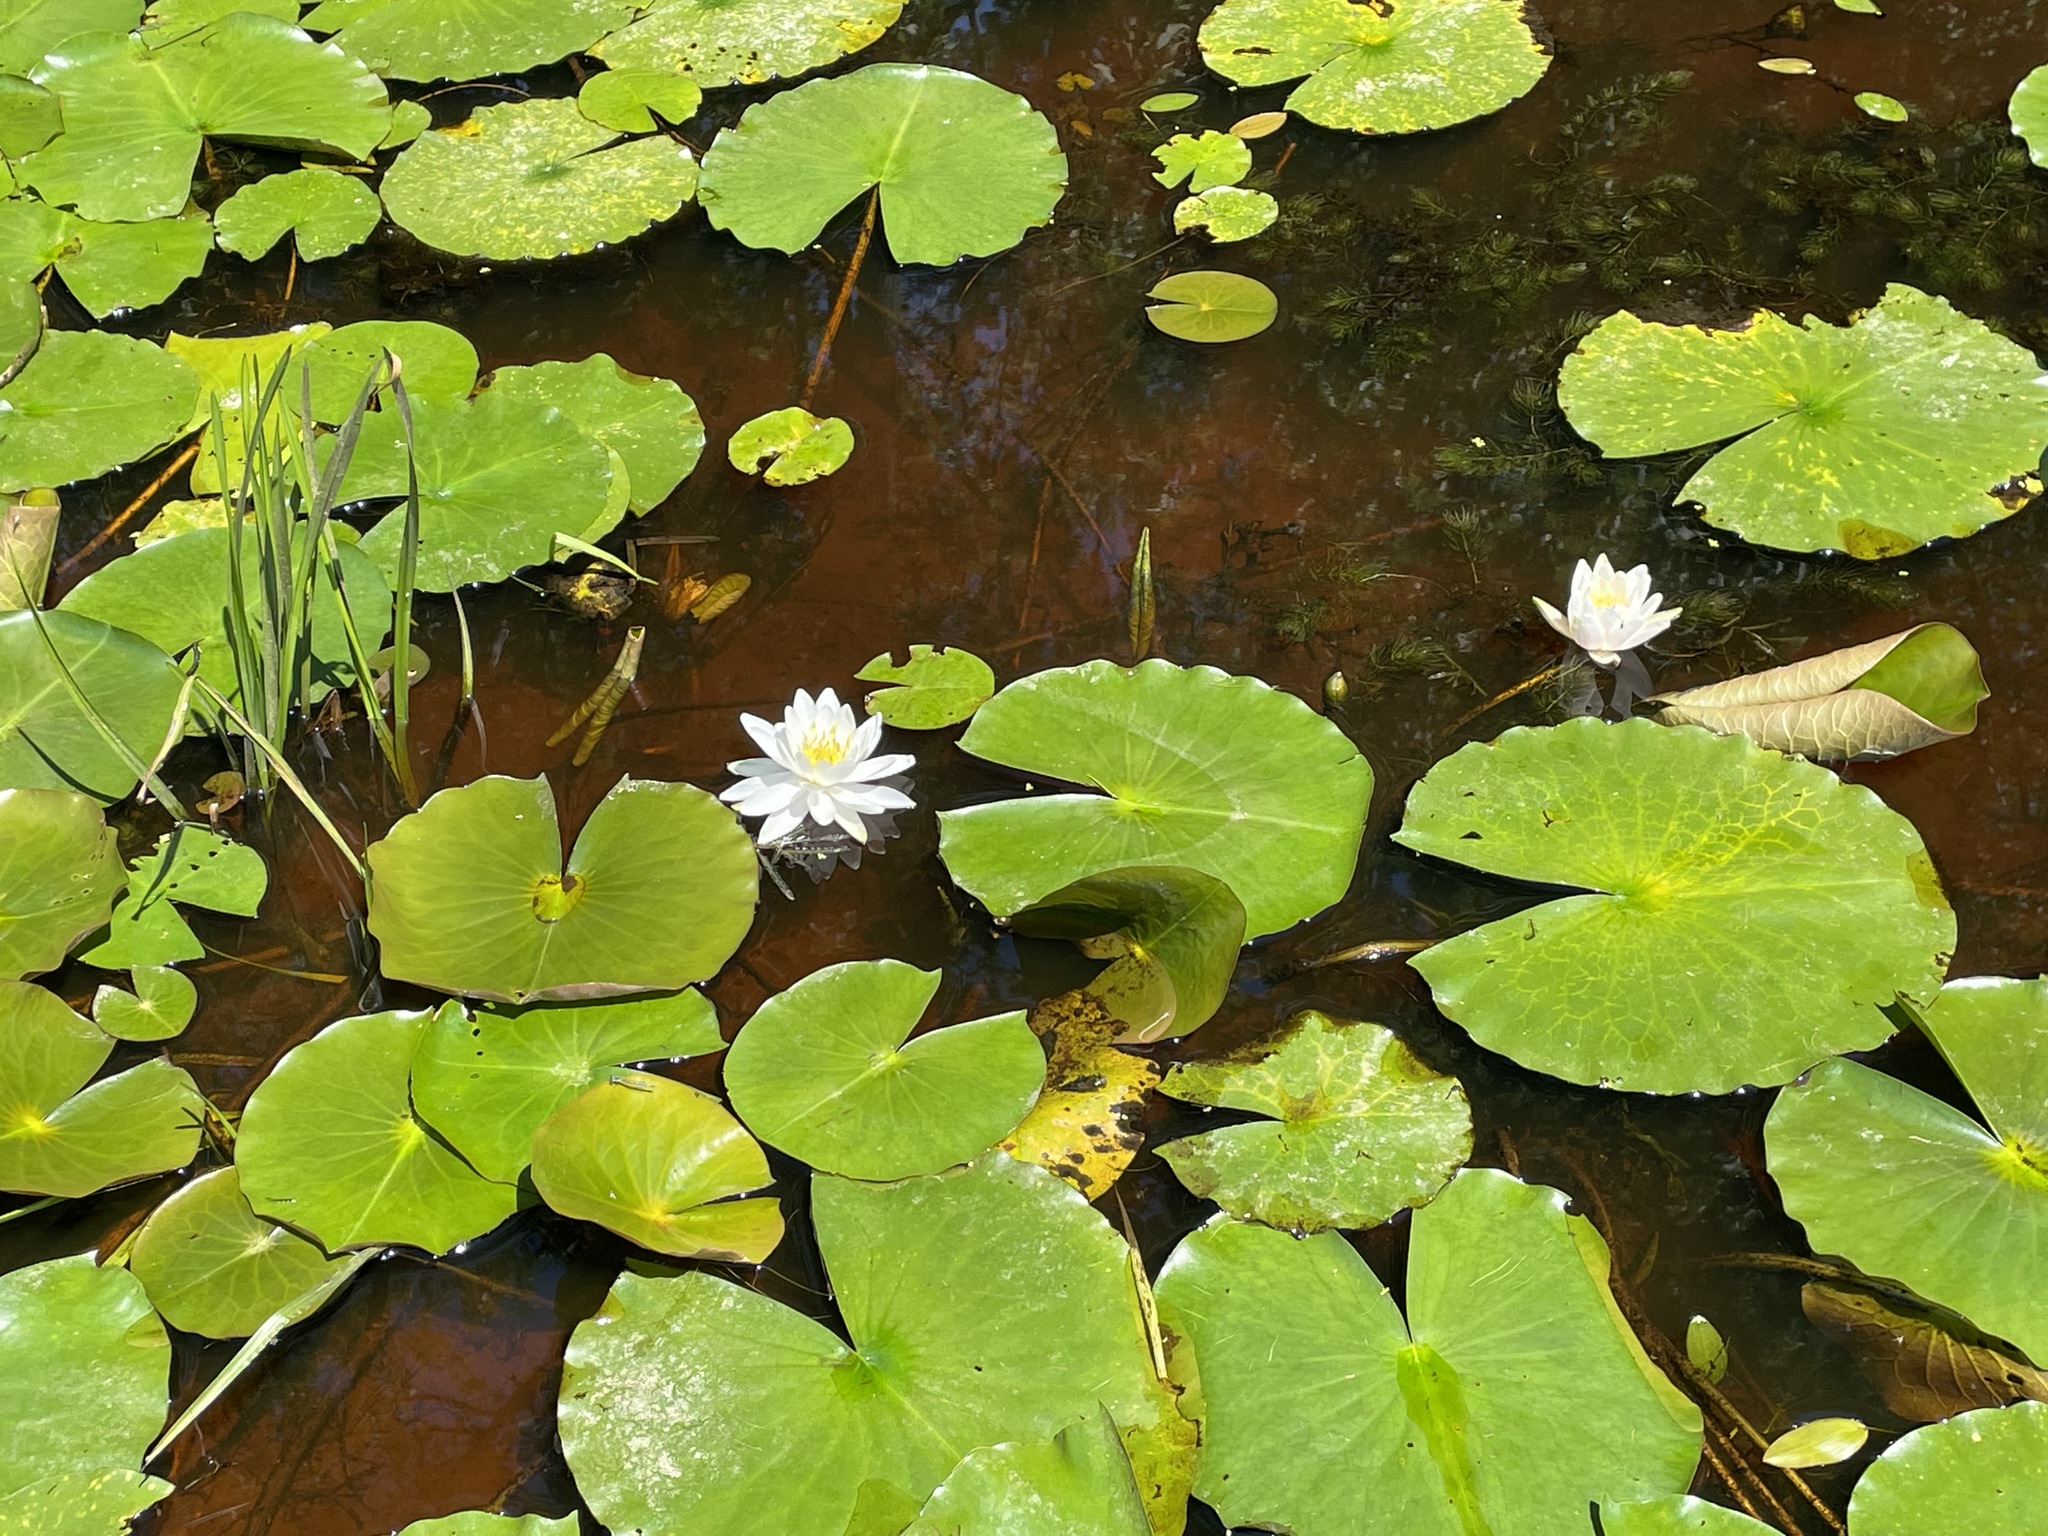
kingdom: Plantae
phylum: Tracheophyta
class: Magnoliopsida
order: Nymphaeales
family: Nymphaeaceae
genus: Nymphaea
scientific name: Nymphaea odorata
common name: Fragrant water-lily
